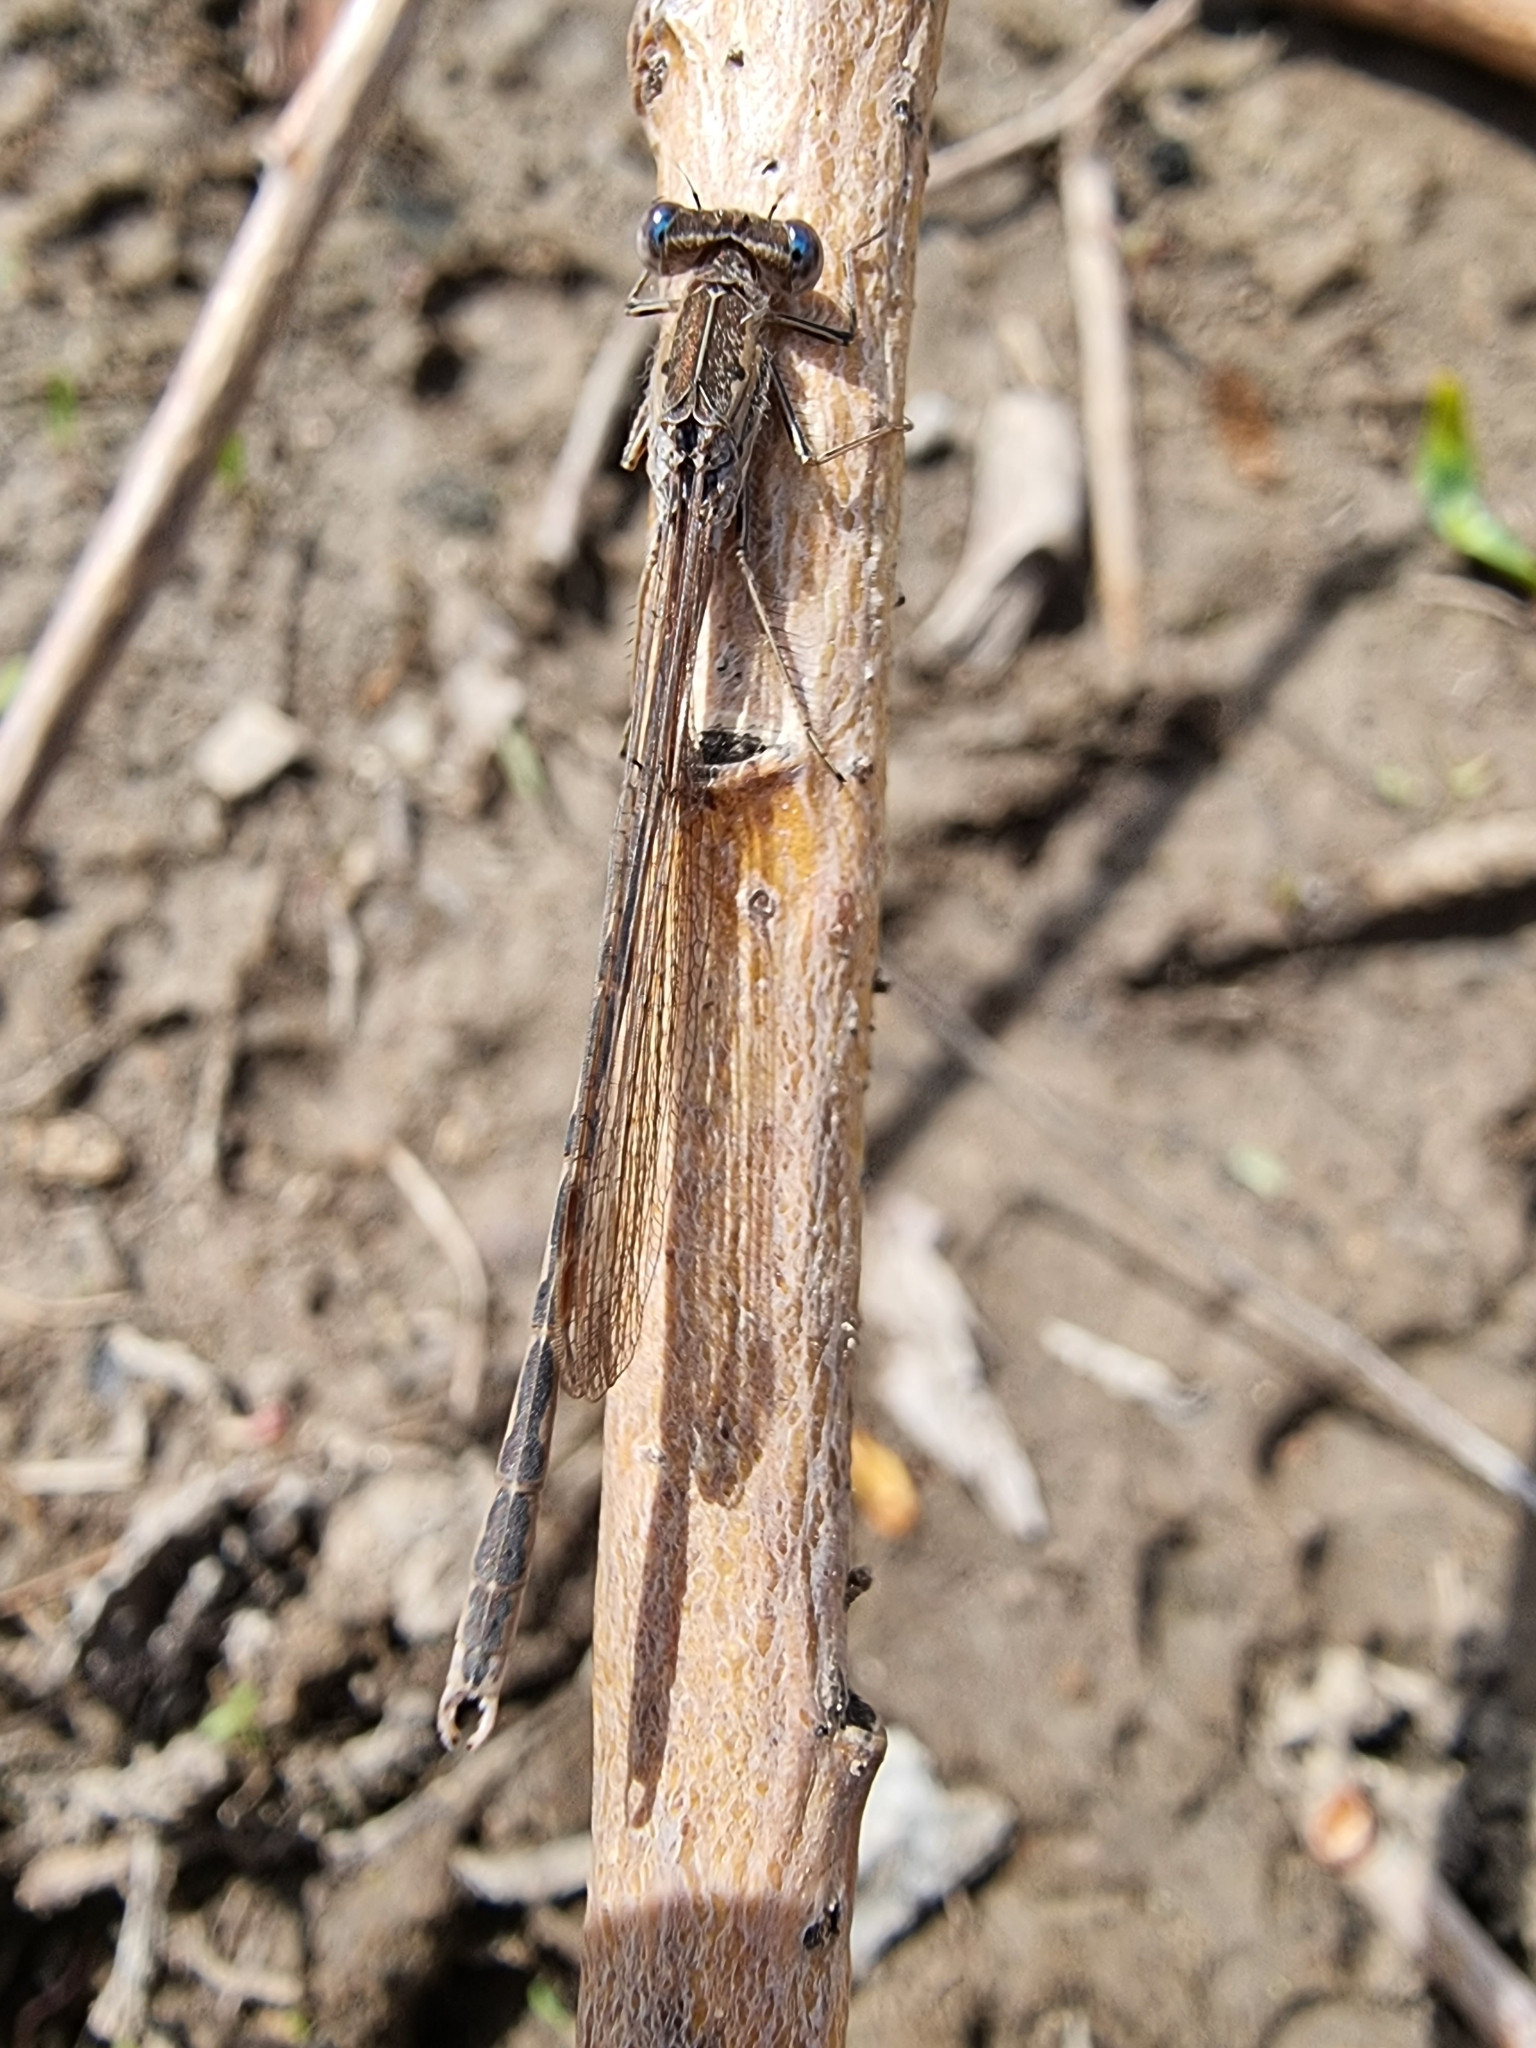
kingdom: Animalia
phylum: Arthropoda
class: Insecta
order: Odonata
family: Lestidae
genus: Sympecma
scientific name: Sympecma paedisca
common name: Siberian winter damsel
